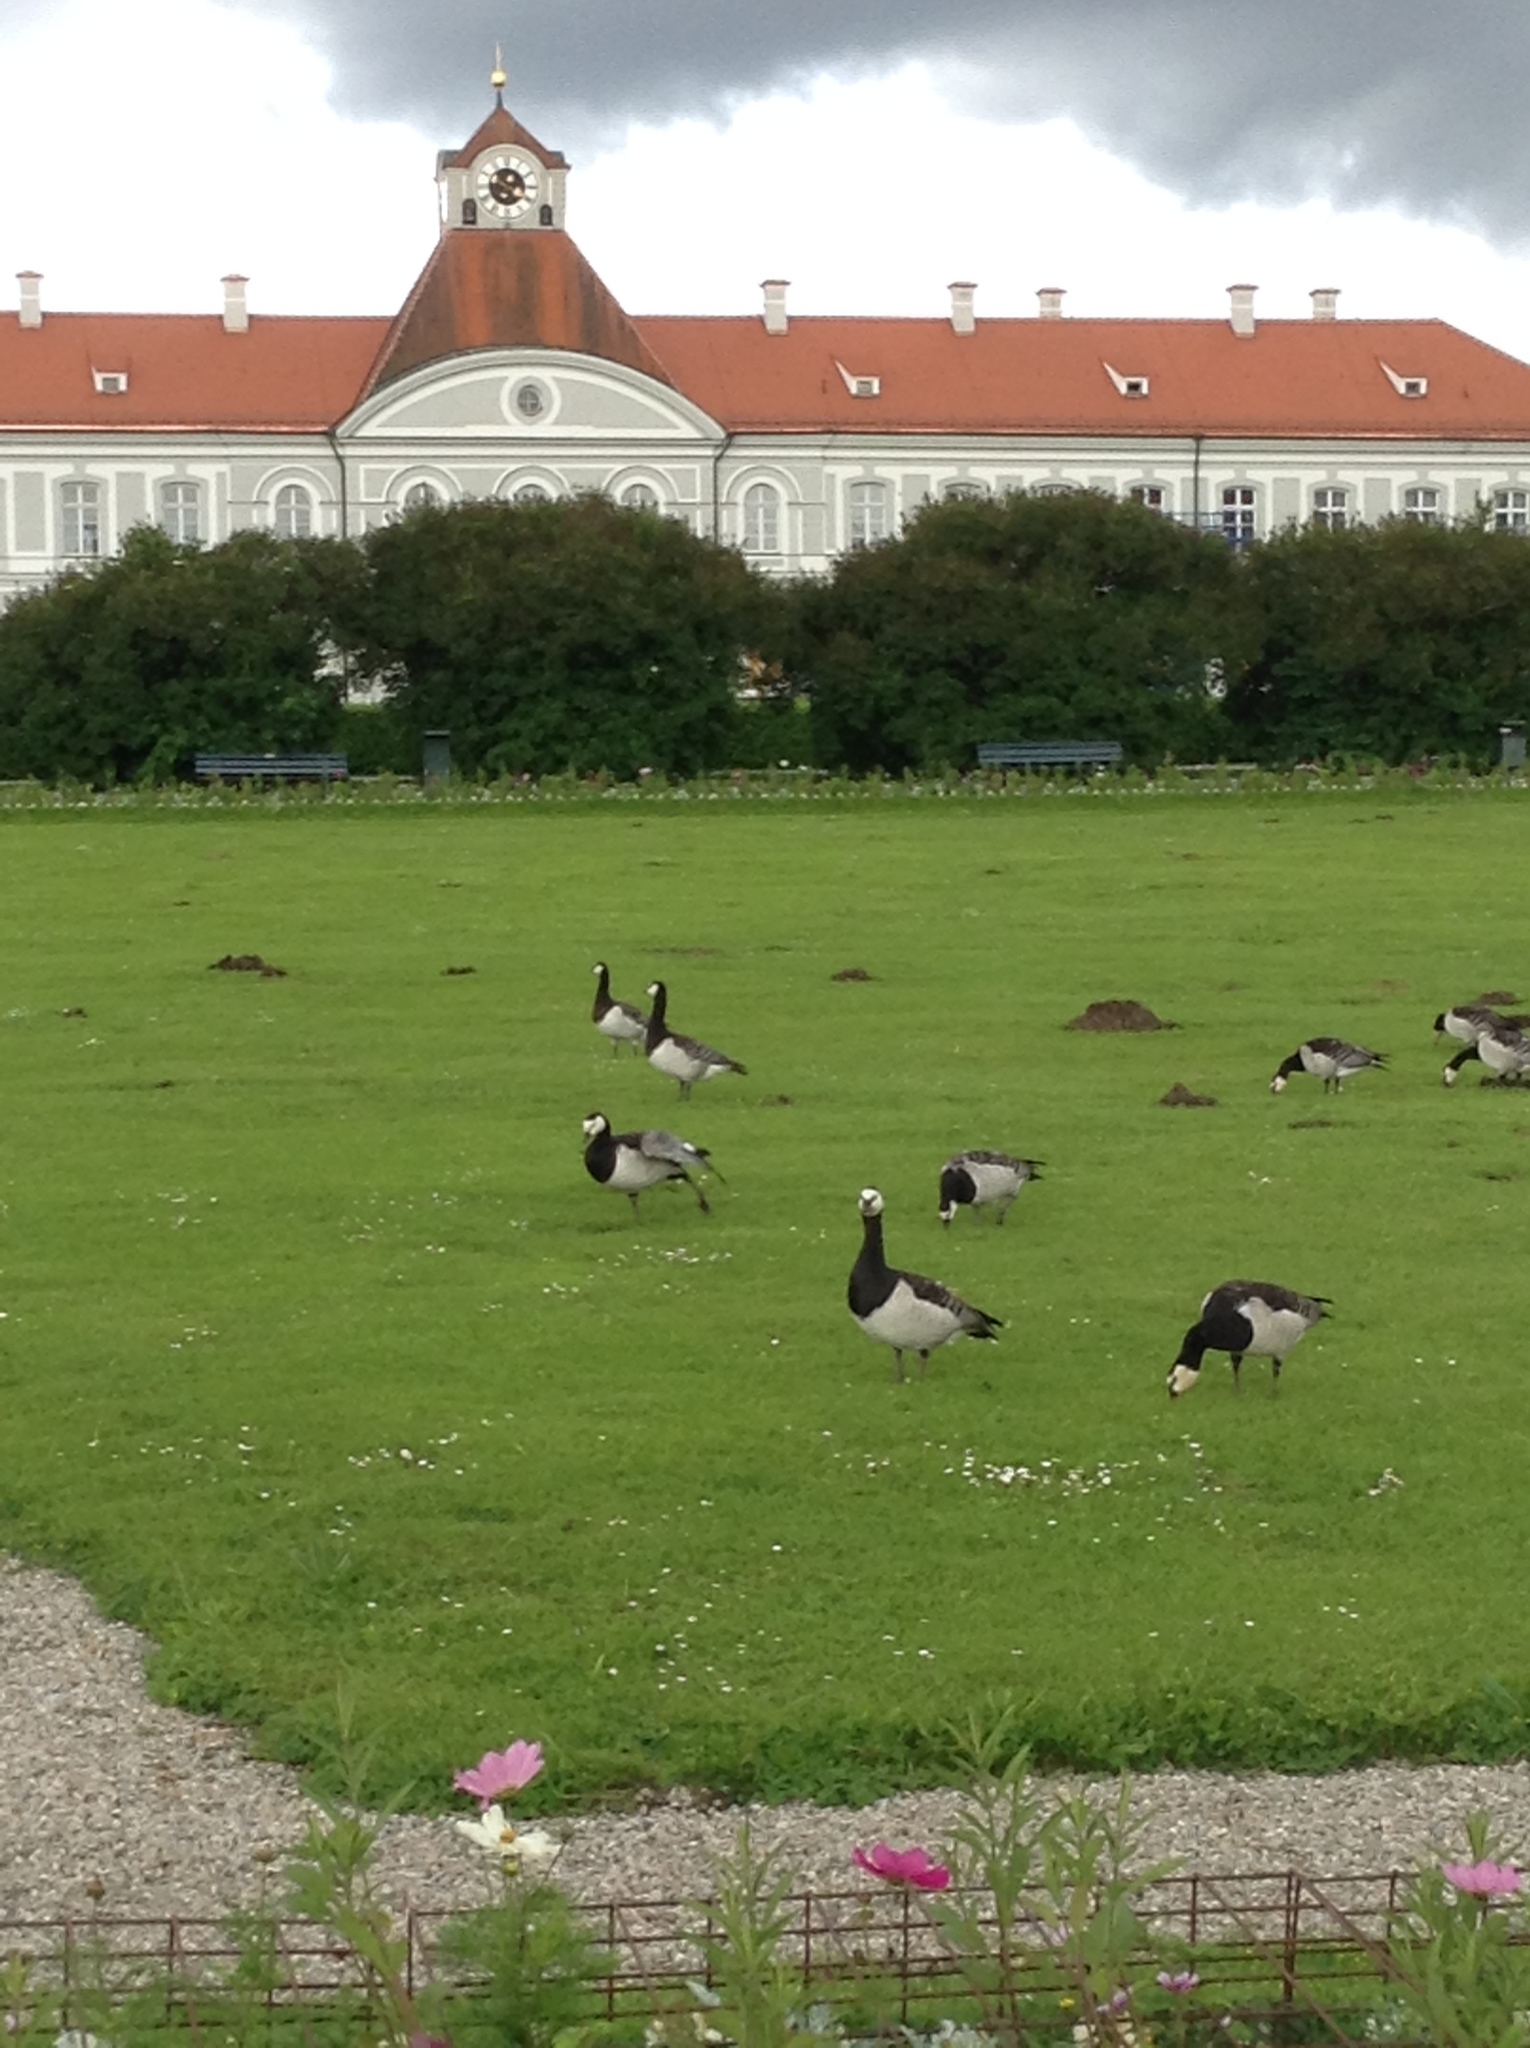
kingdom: Animalia
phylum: Chordata
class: Aves
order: Anseriformes
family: Anatidae
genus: Branta
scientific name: Branta leucopsis
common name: Barnacle goose
